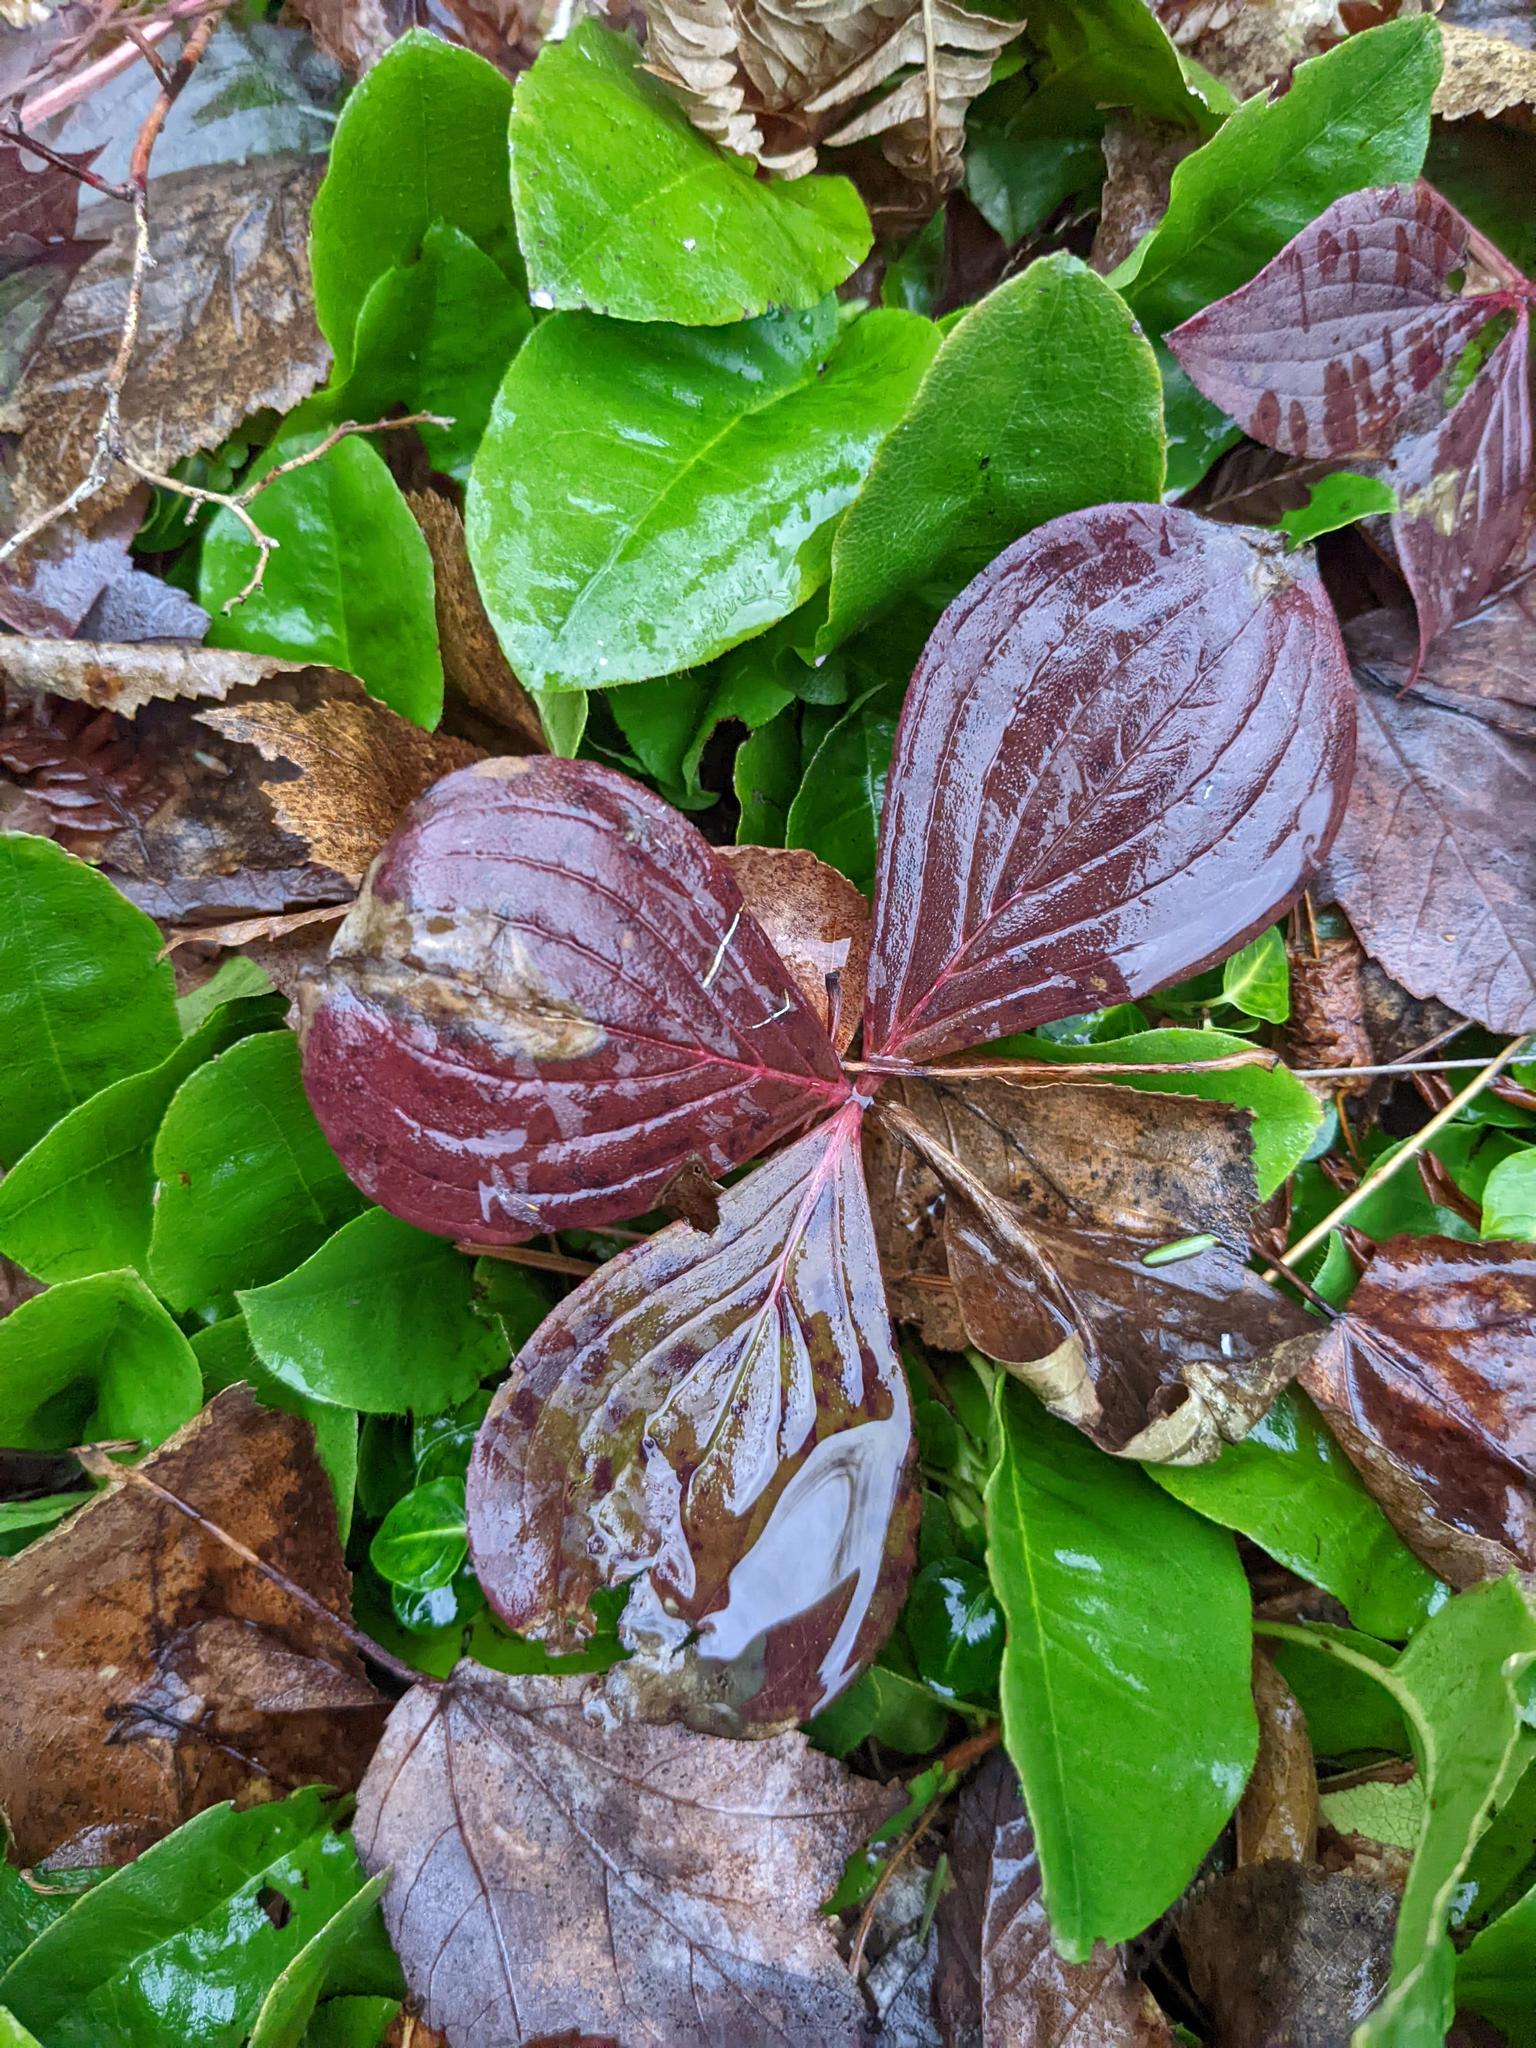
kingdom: Plantae
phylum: Tracheophyta
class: Magnoliopsida
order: Cornales
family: Cornaceae
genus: Cornus
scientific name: Cornus canadensis
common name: Creeping dogwood
